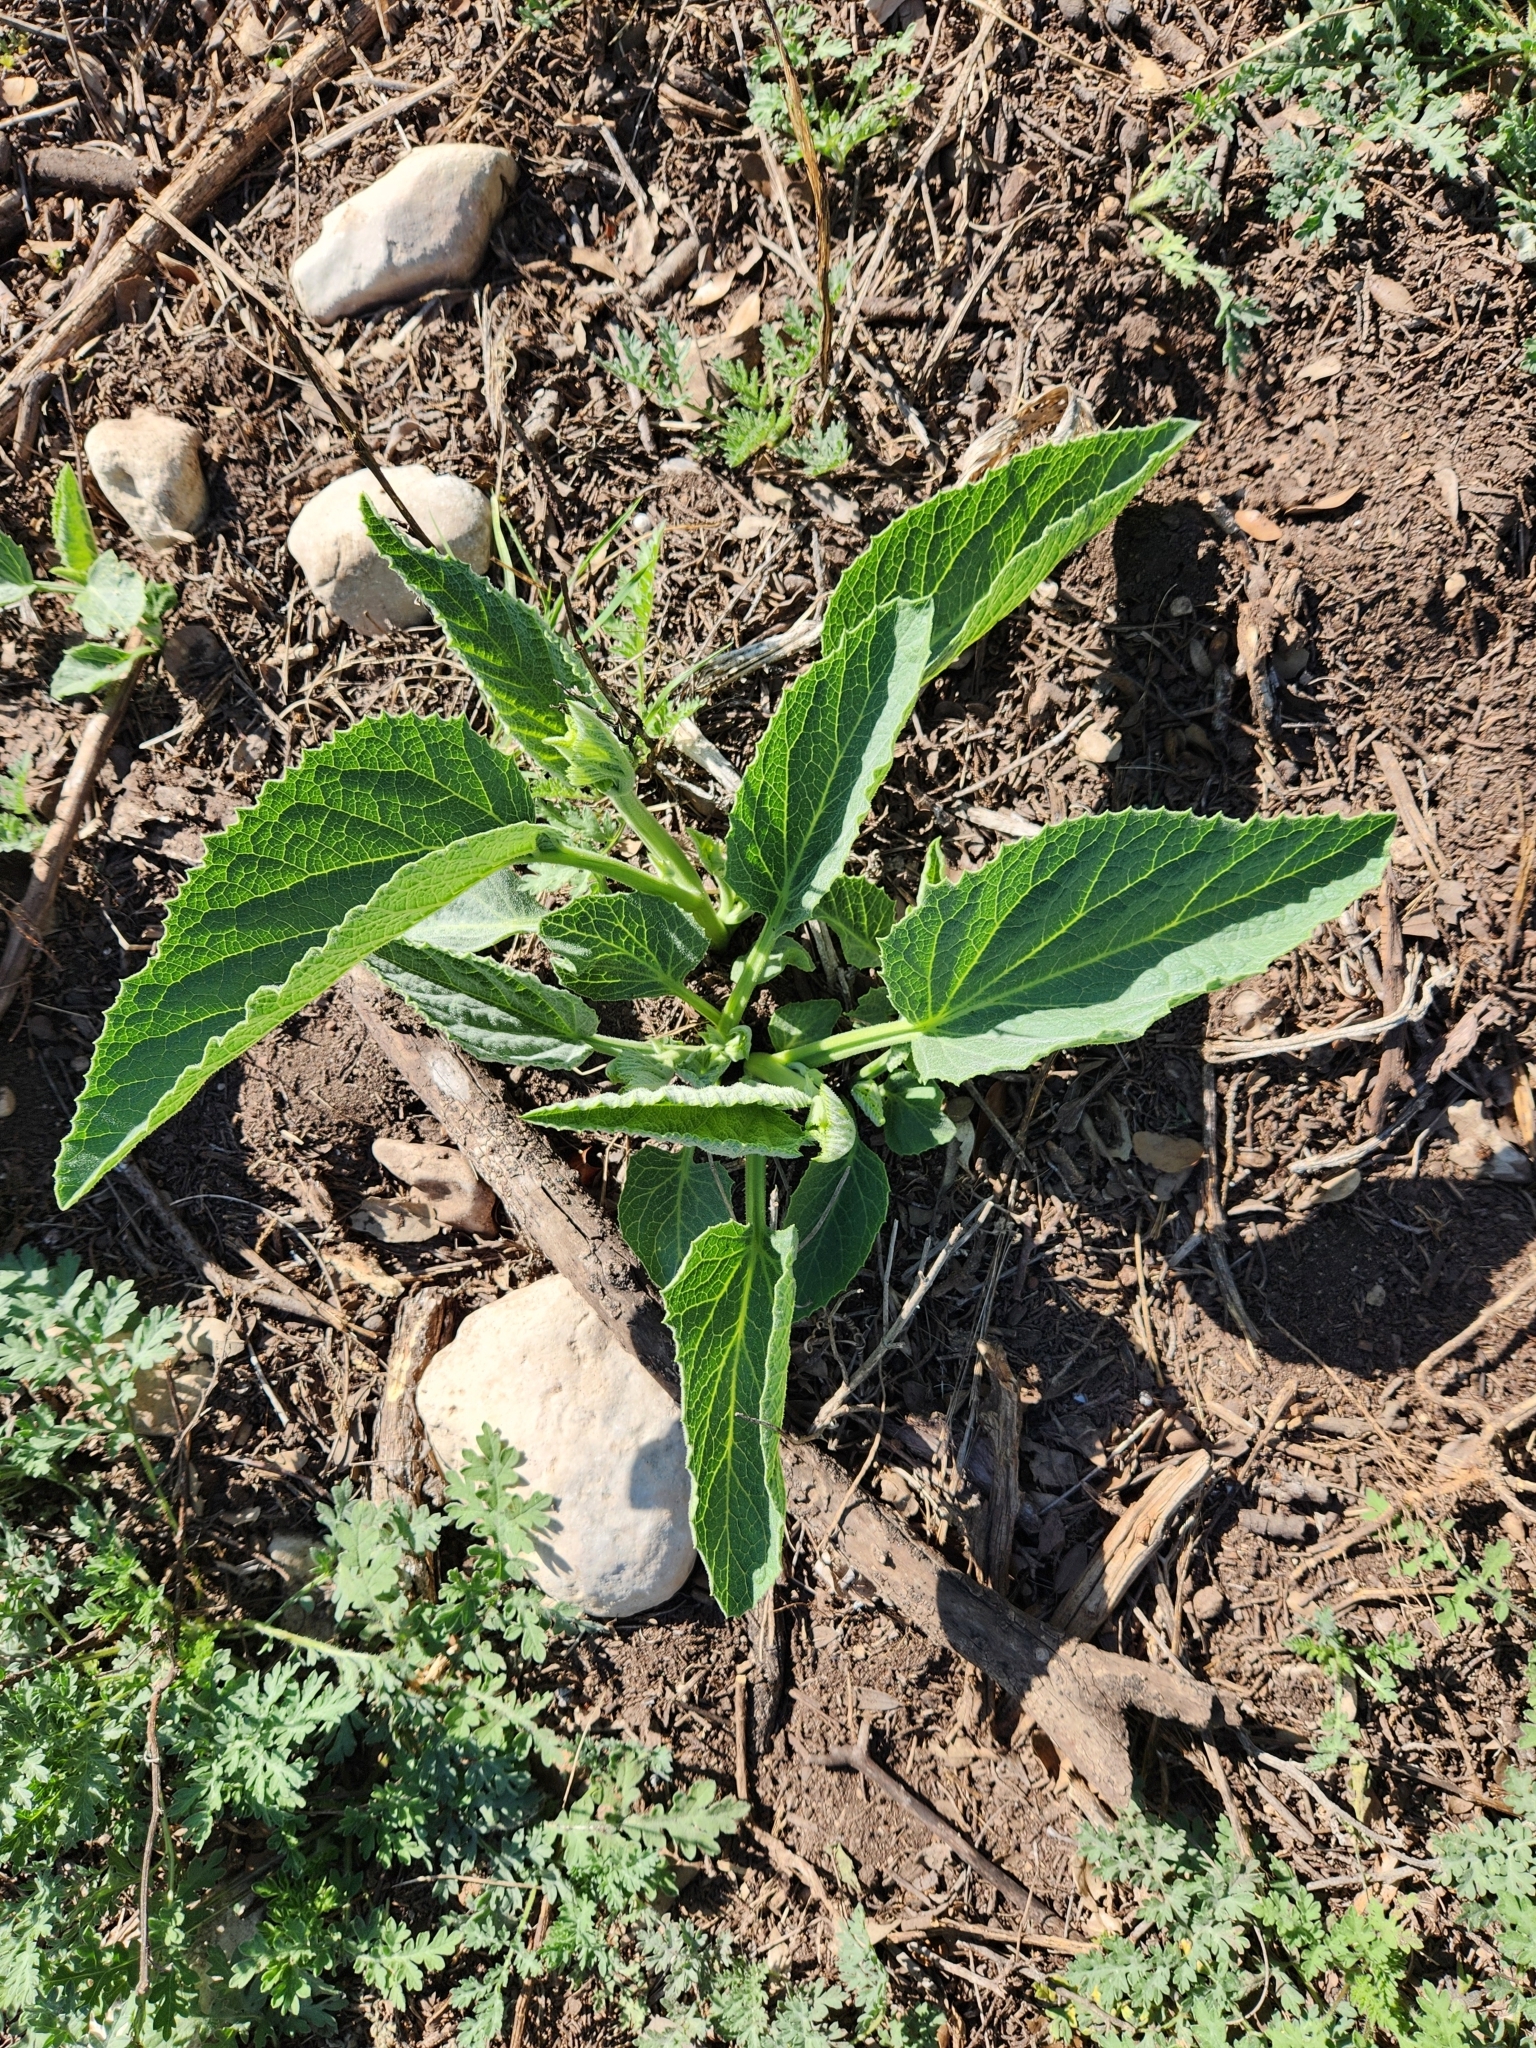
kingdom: Plantae
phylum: Tracheophyta
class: Magnoliopsida
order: Cucurbitales
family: Cucurbitaceae
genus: Cucurbita
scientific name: Cucurbita foetidissima
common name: Buffalo gourd
